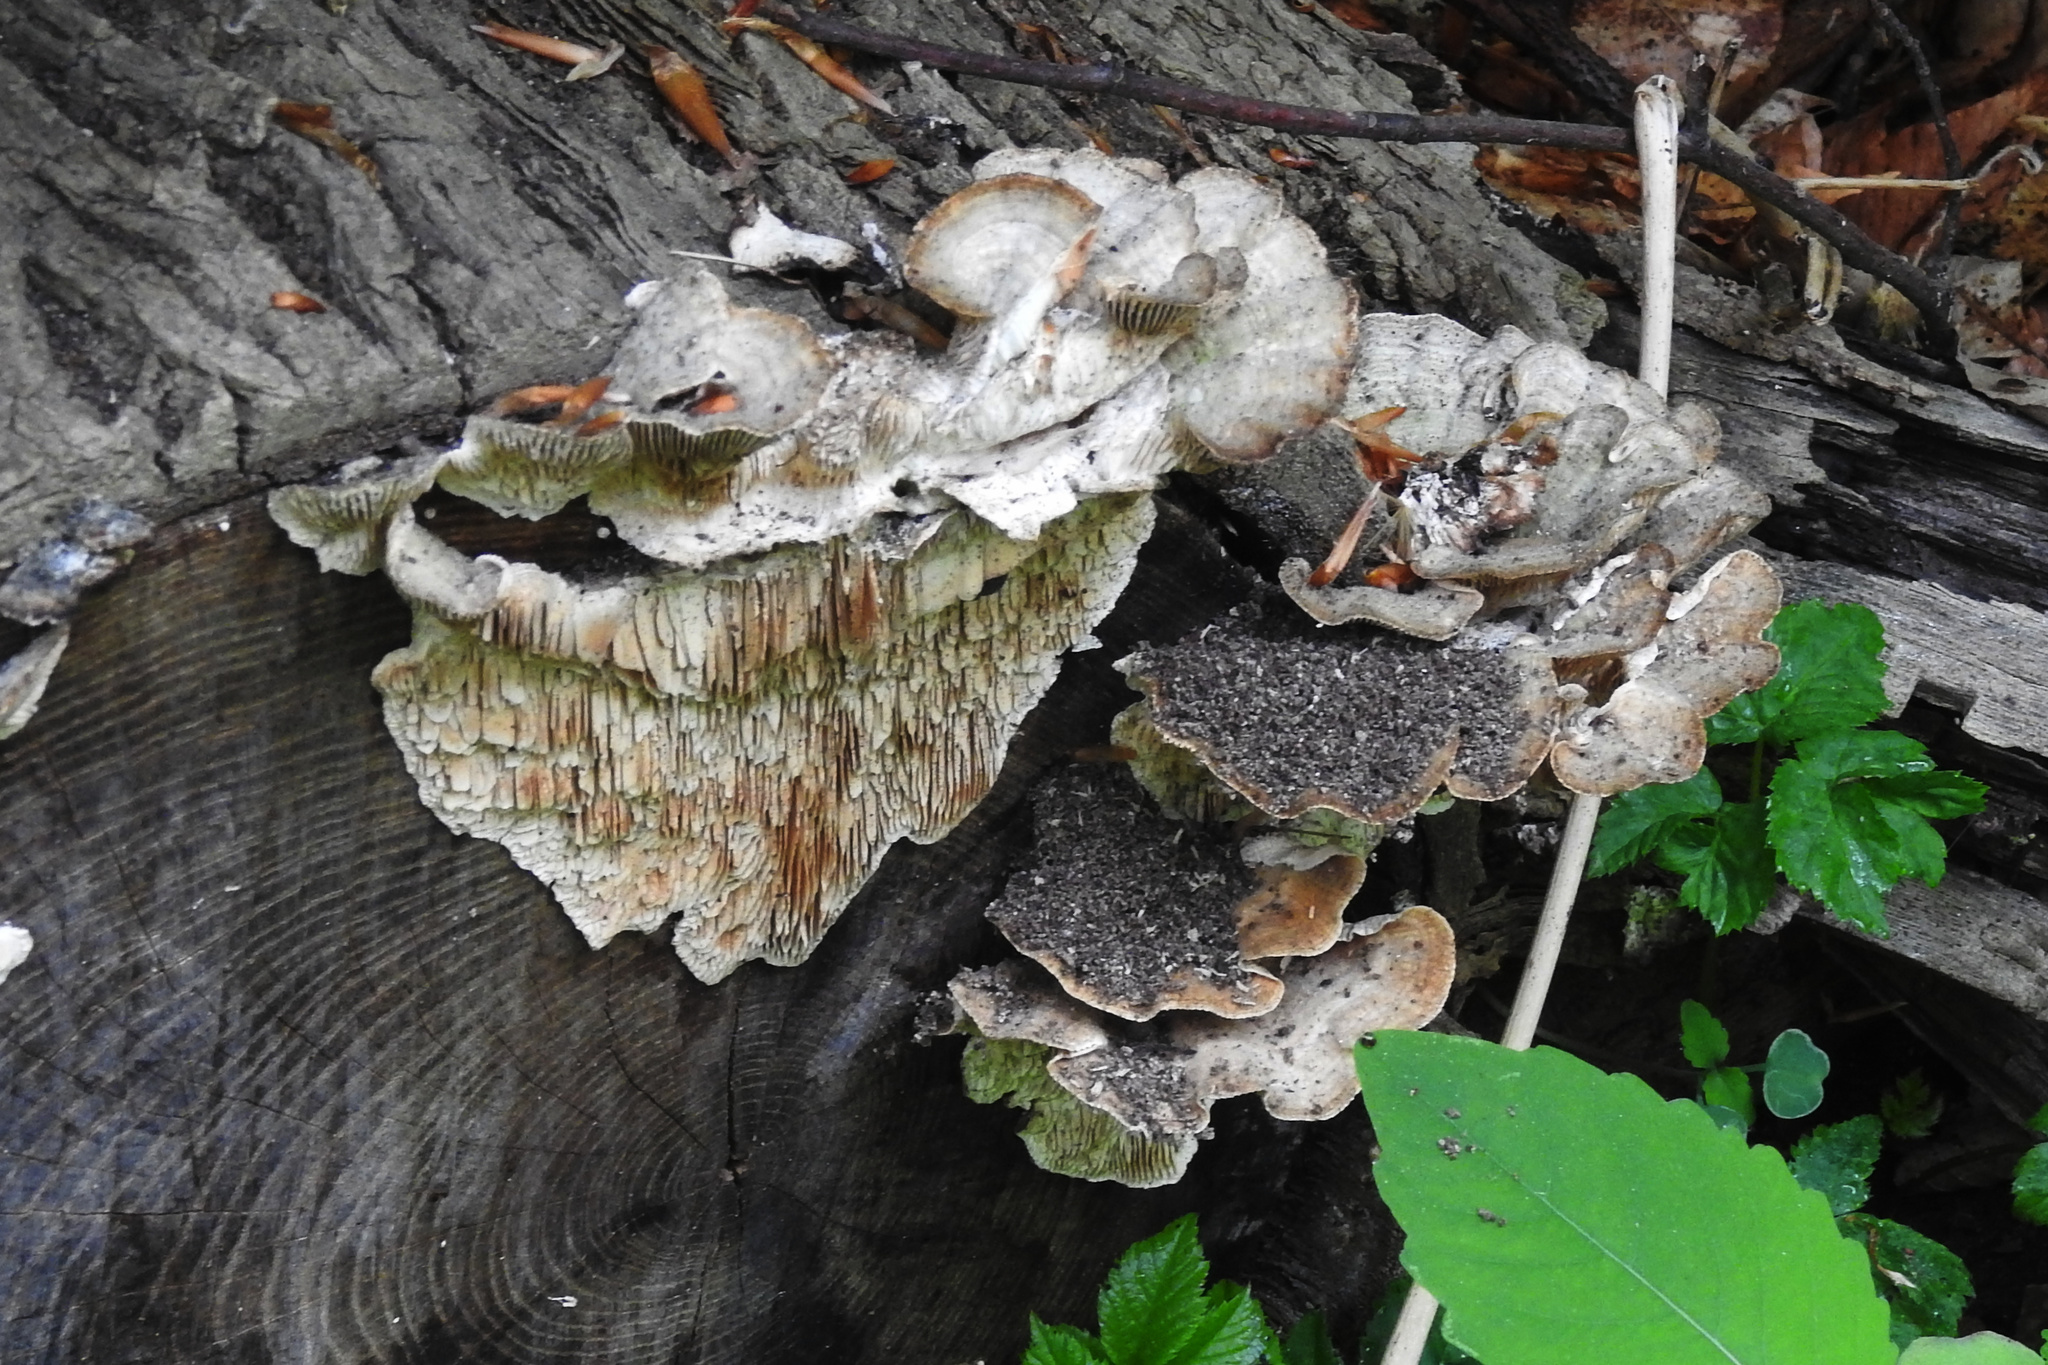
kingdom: Fungi
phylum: Basidiomycota
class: Agaricomycetes
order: Polyporales
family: Polyporaceae
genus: Lenzites
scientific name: Lenzites betulinus
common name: Birch mazegill
